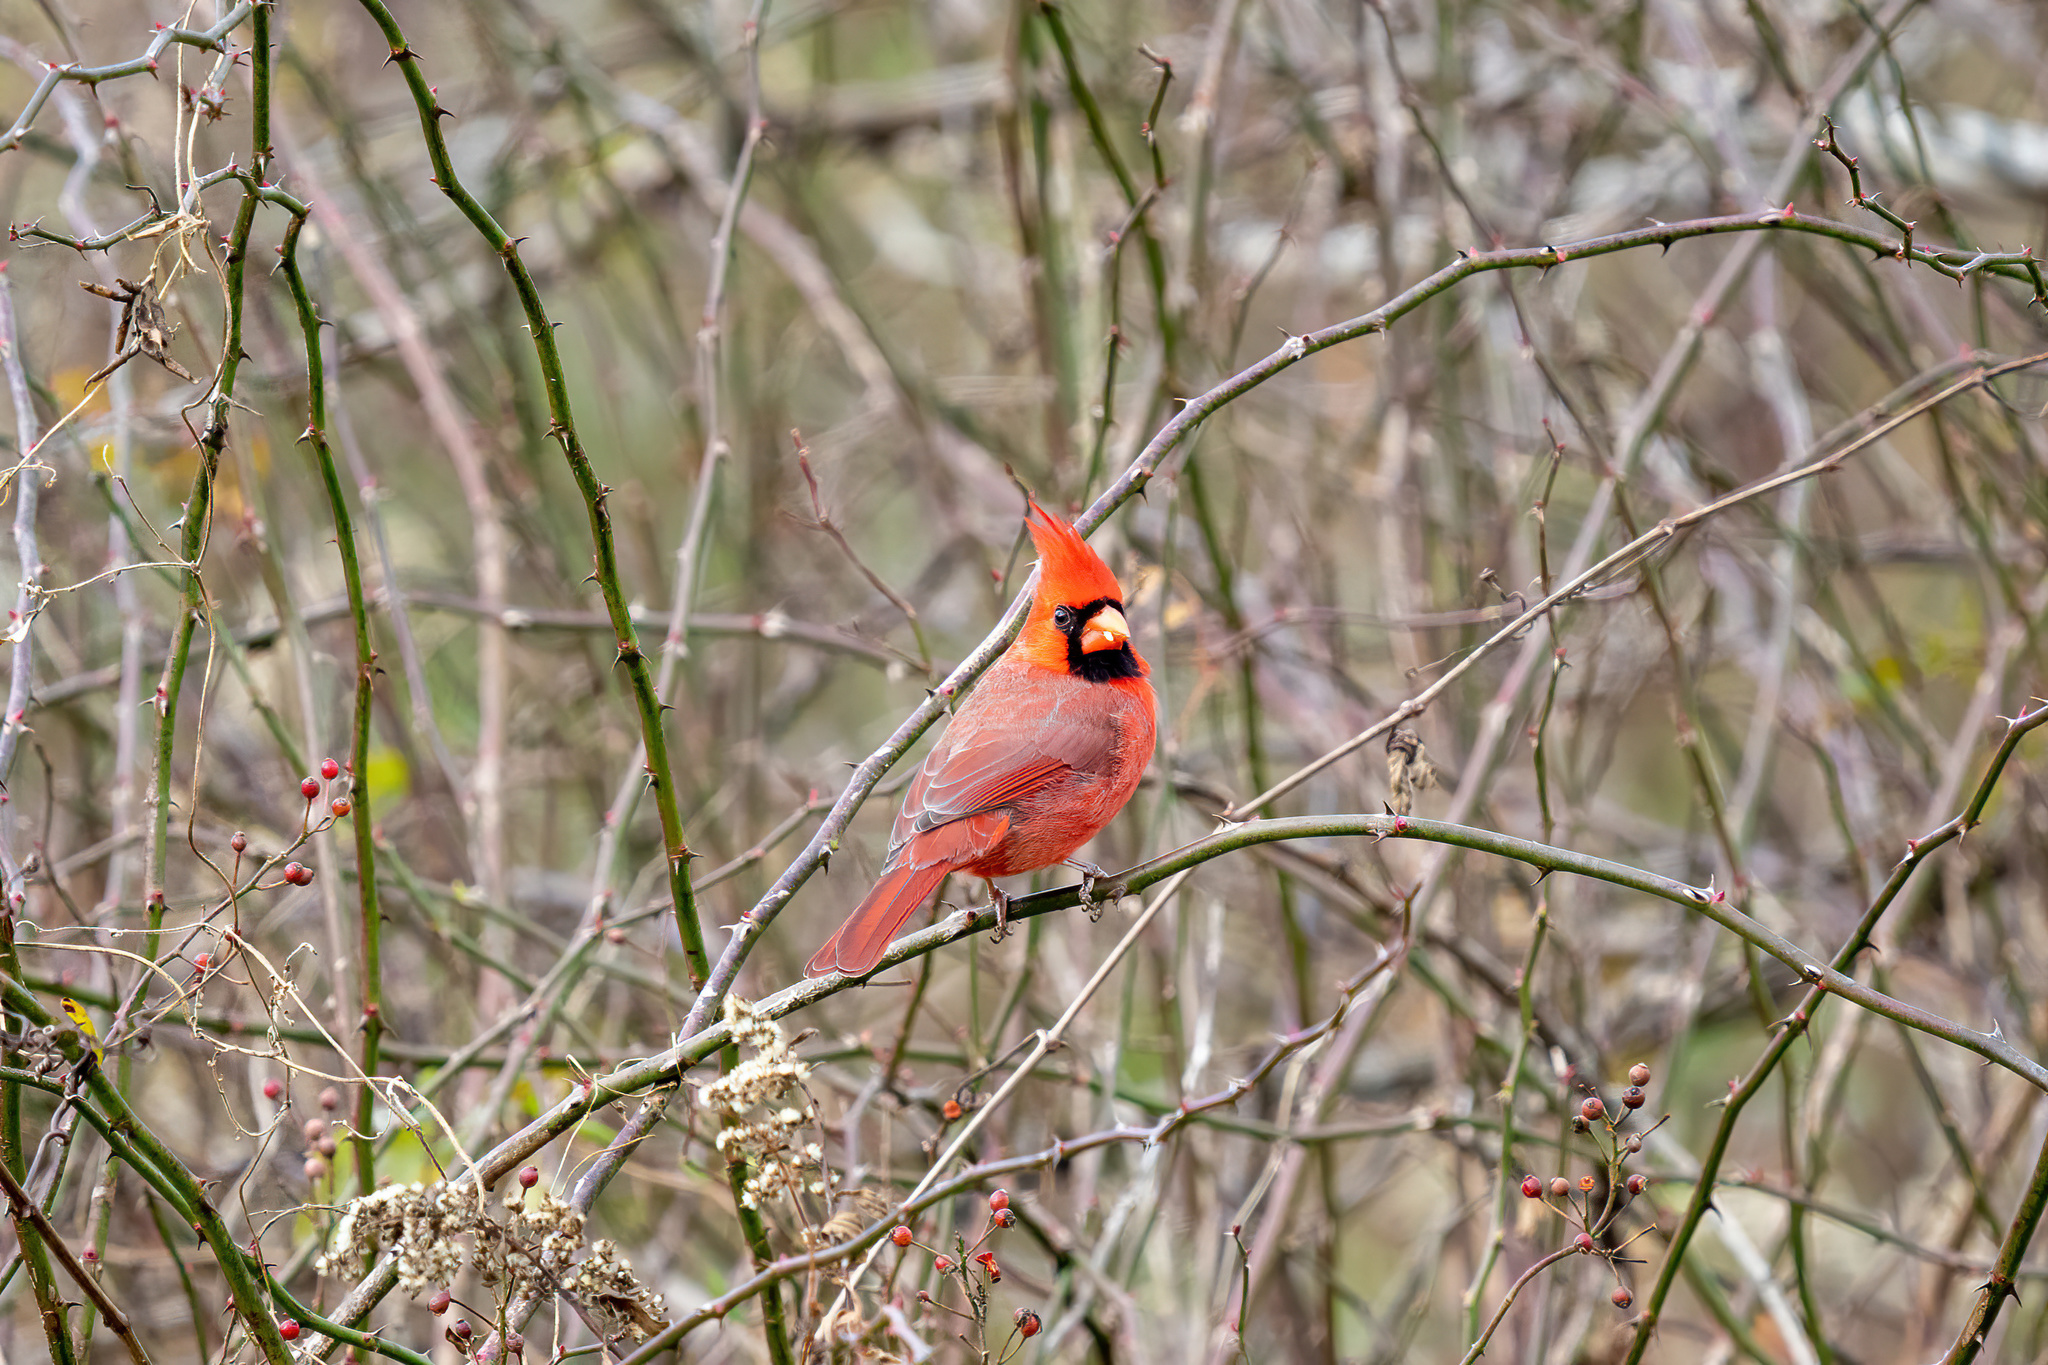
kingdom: Animalia
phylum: Chordata
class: Aves
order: Passeriformes
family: Cardinalidae
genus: Cardinalis
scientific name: Cardinalis cardinalis
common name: Northern cardinal
